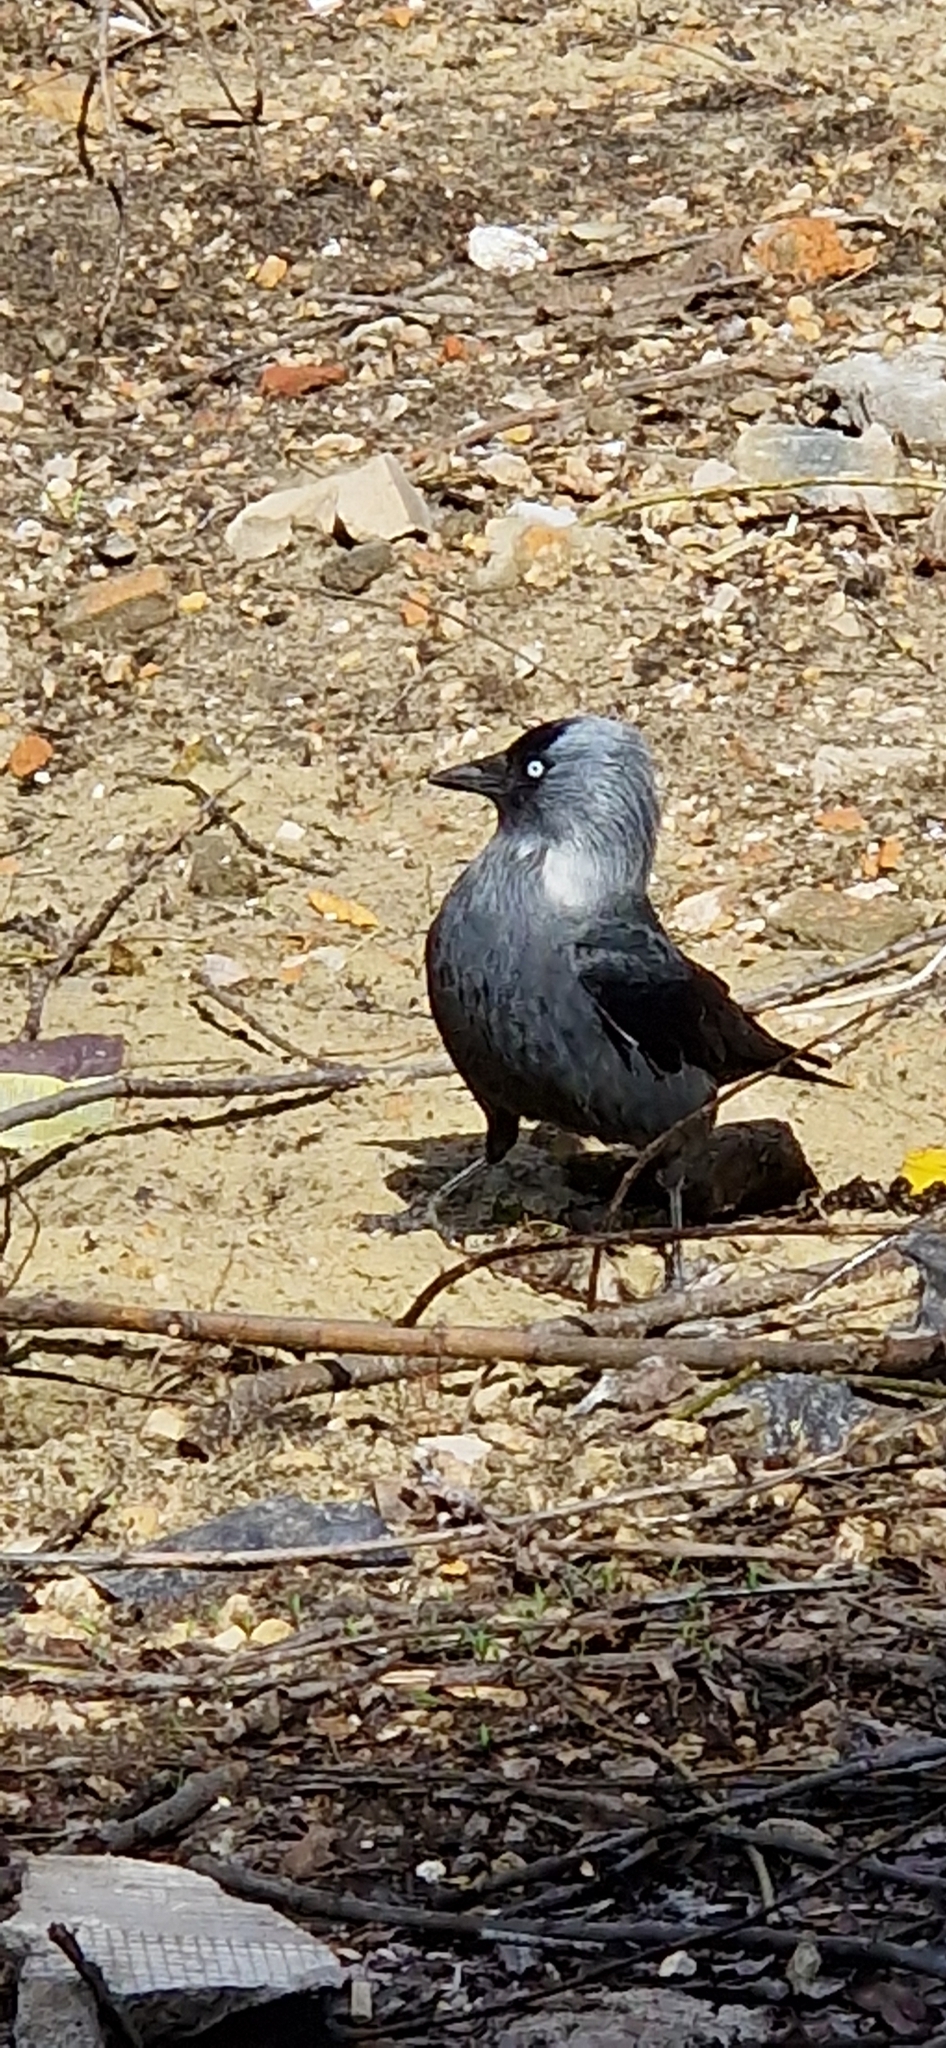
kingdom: Animalia
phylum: Chordata
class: Aves
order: Passeriformes
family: Corvidae
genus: Coloeus
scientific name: Coloeus monedula
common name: Western jackdaw
